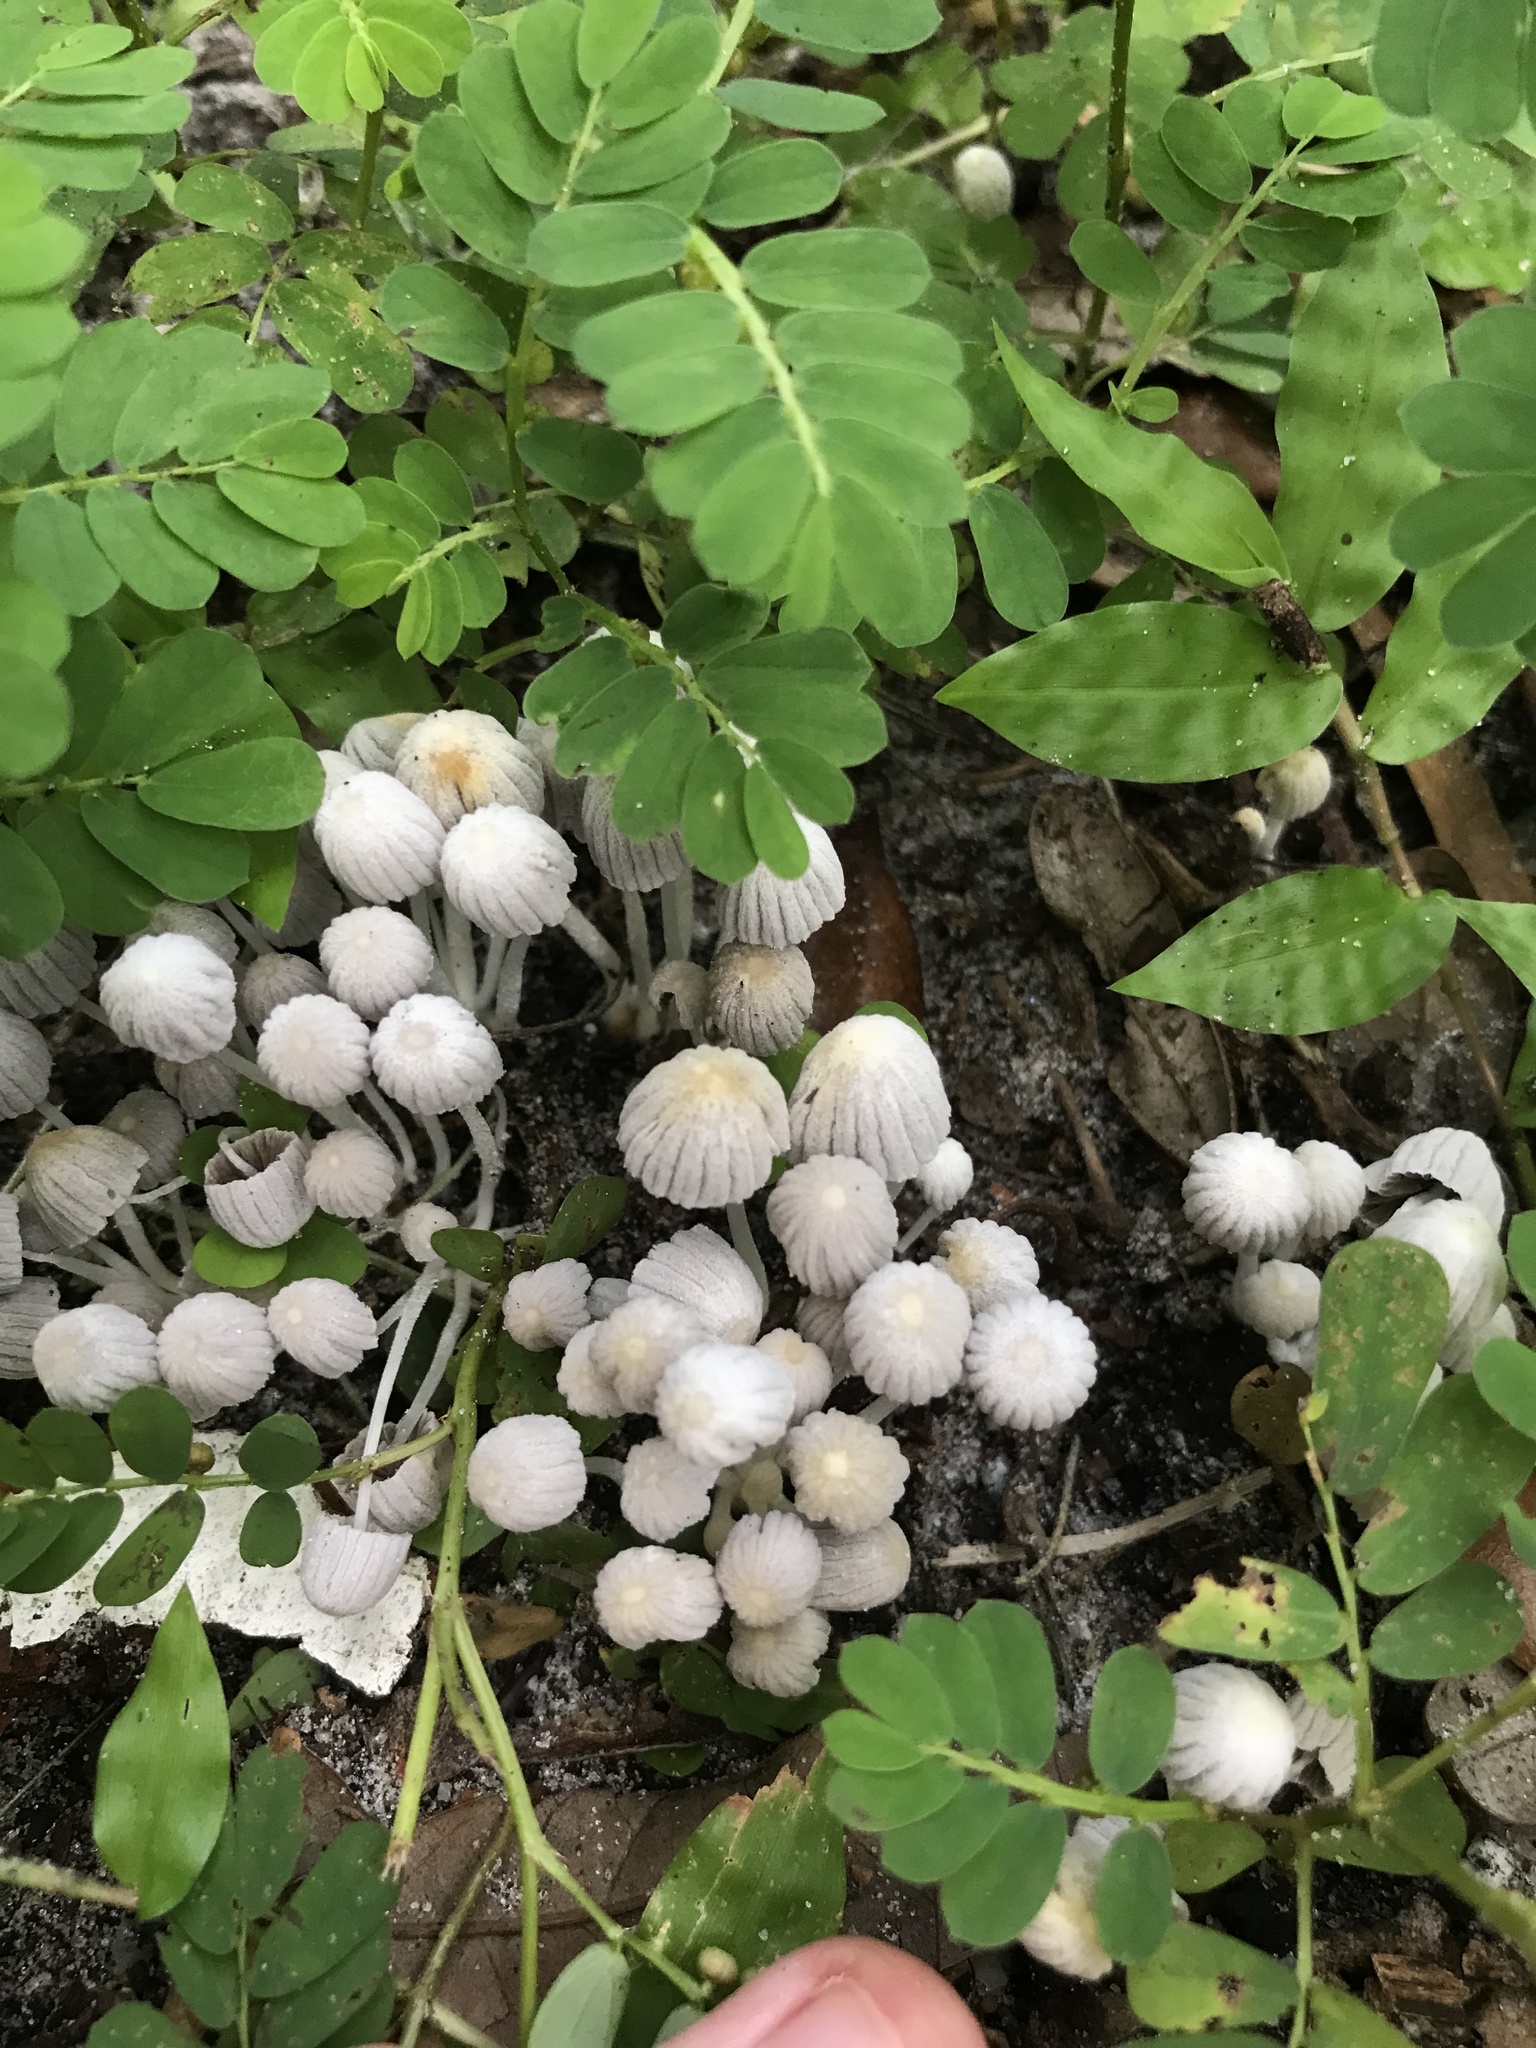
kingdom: Fungi
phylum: Basidiomycota
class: Agaricomycetes
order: Agaricales
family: Psathyrellaceae
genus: Coprinellus
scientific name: Coprinellus disseminatus
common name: Fairies' bonnets
